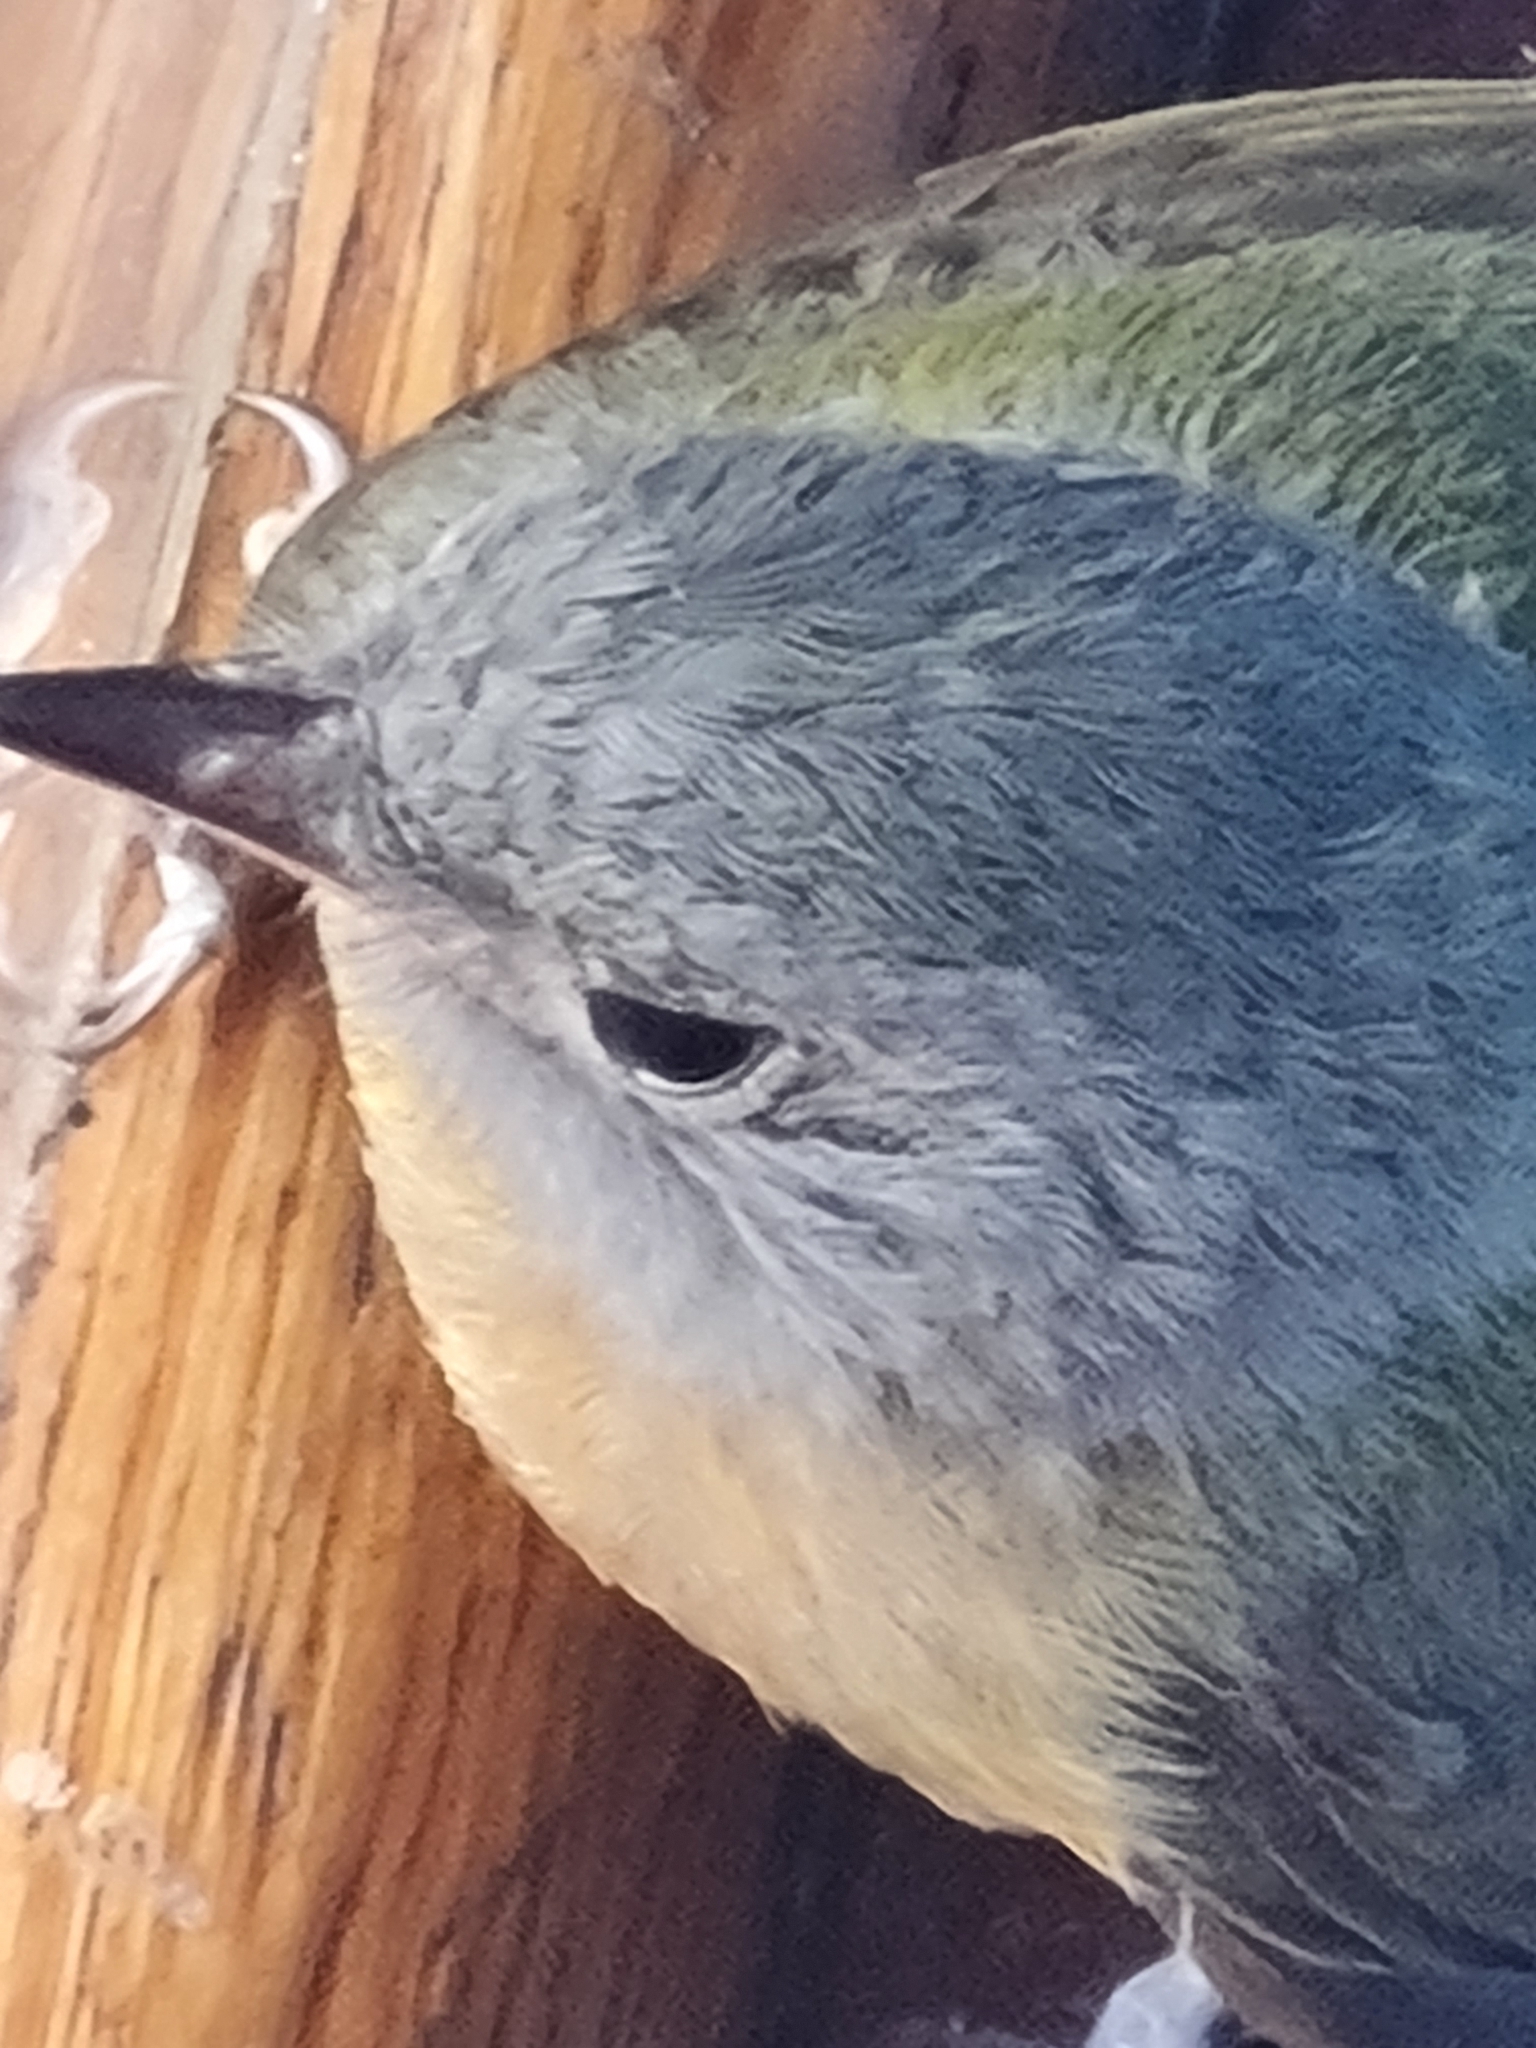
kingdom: Animalia
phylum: Chordata
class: Aves
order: Passeriformes
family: Tyrannidae
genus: Mionectes
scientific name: Mionectes rufiventris
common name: Grey-hooded flycatcher
